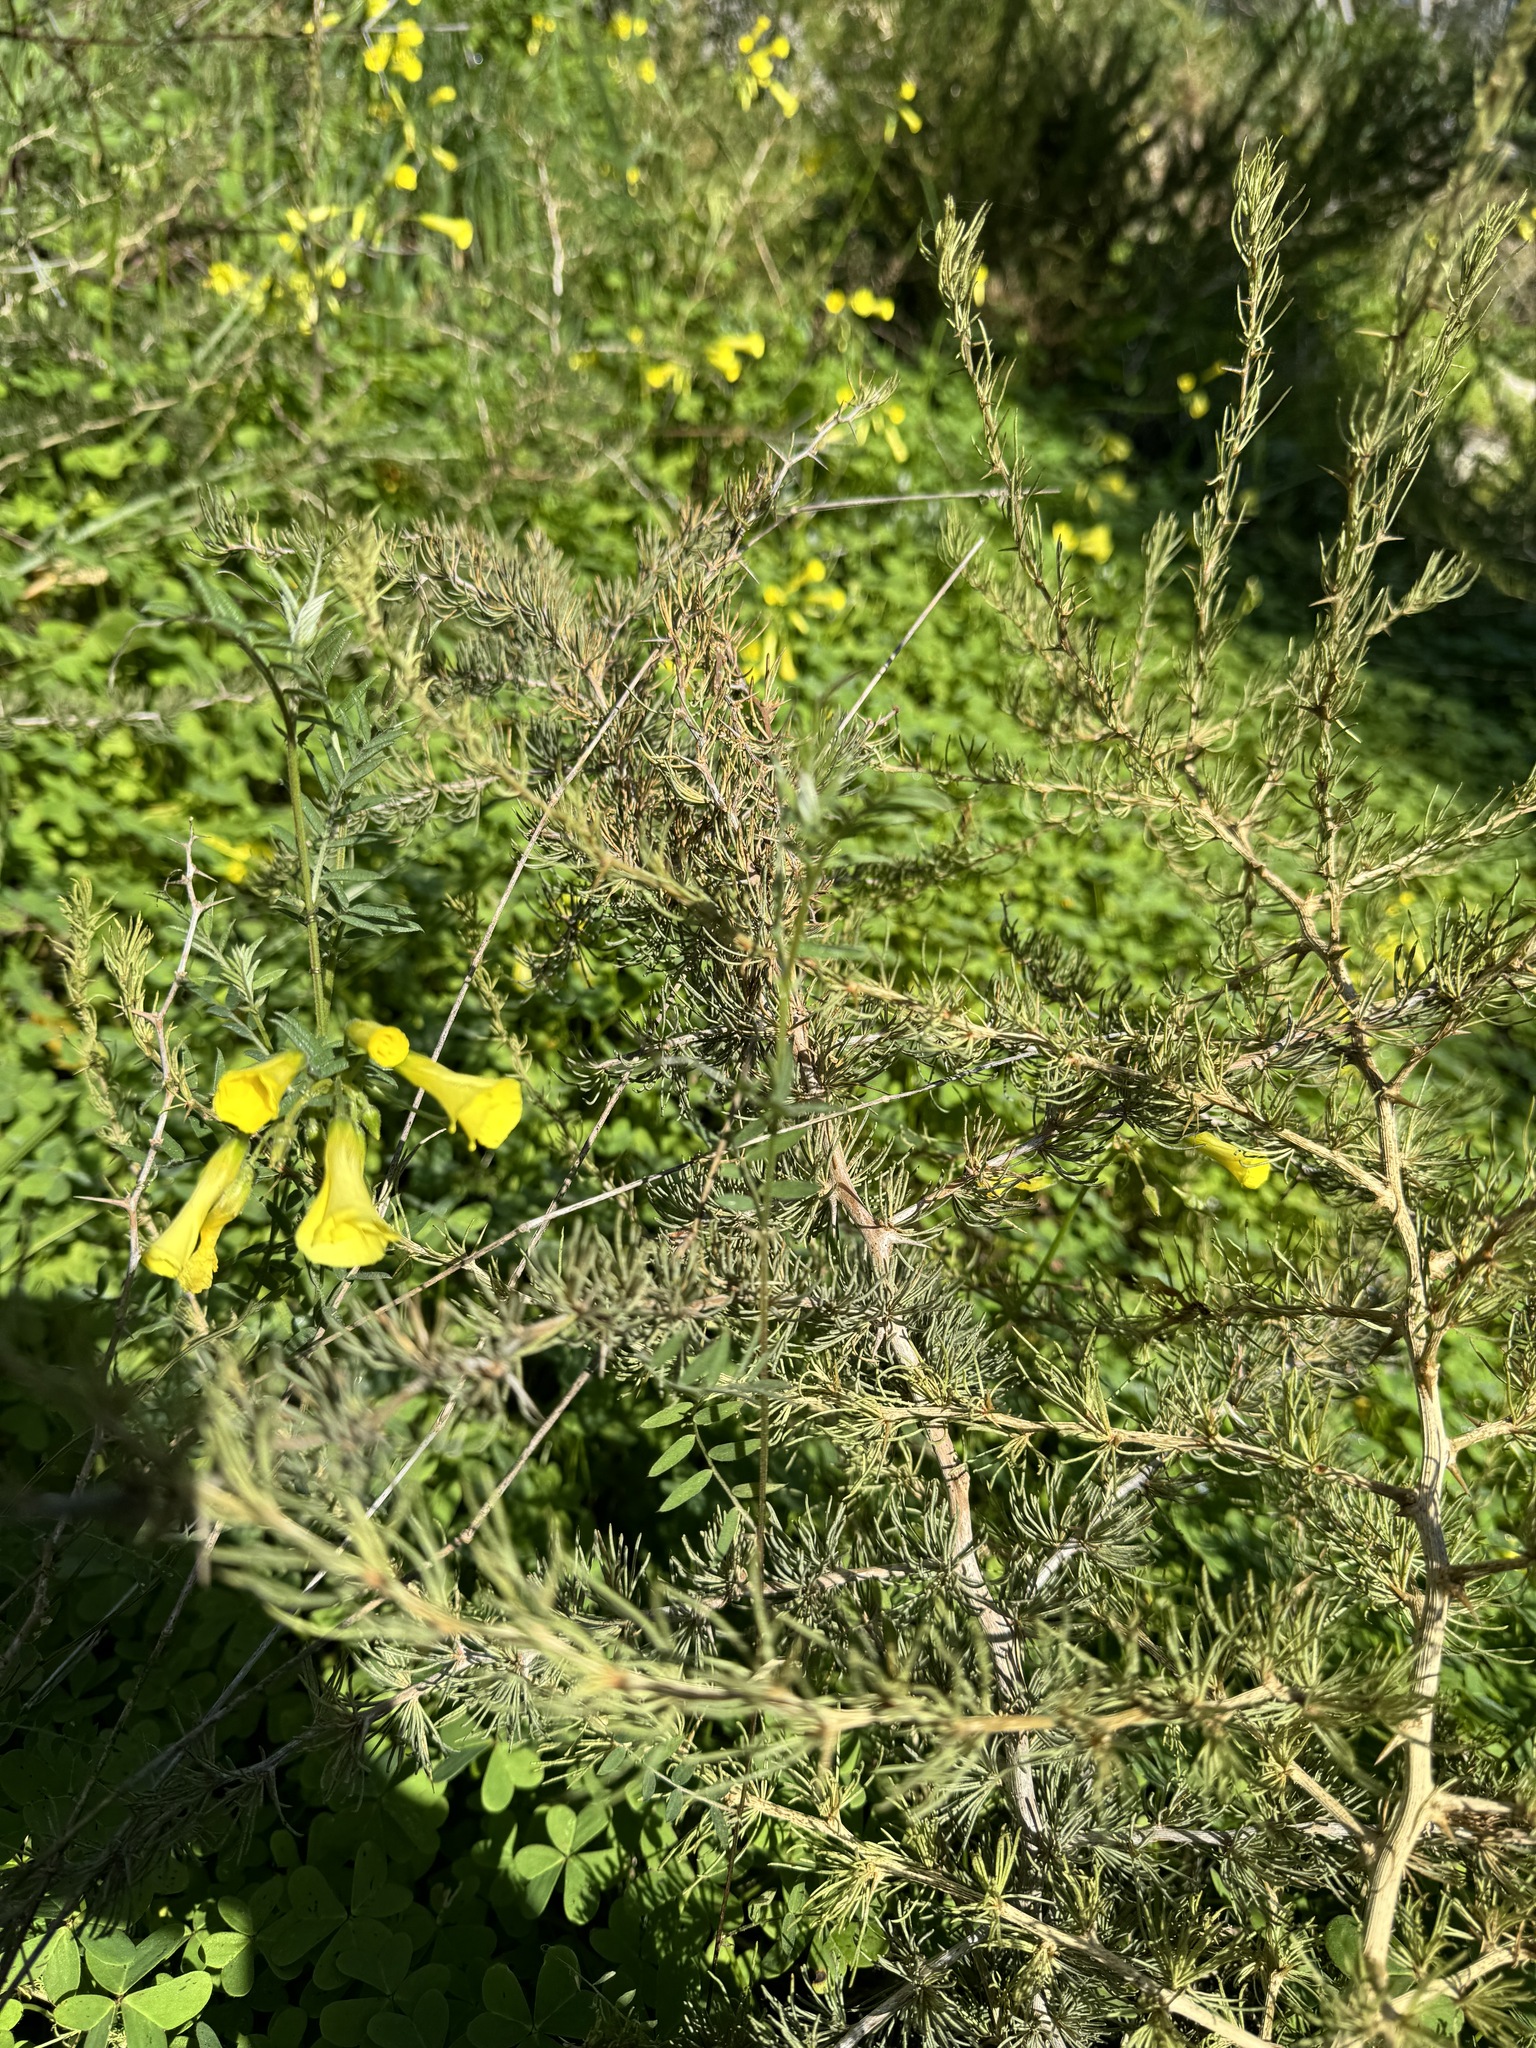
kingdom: Plantae
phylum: Tracheophyta
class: Liliopsida
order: Asparagales
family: Asparagaceae
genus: Asparagus
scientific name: Asparagus albus
